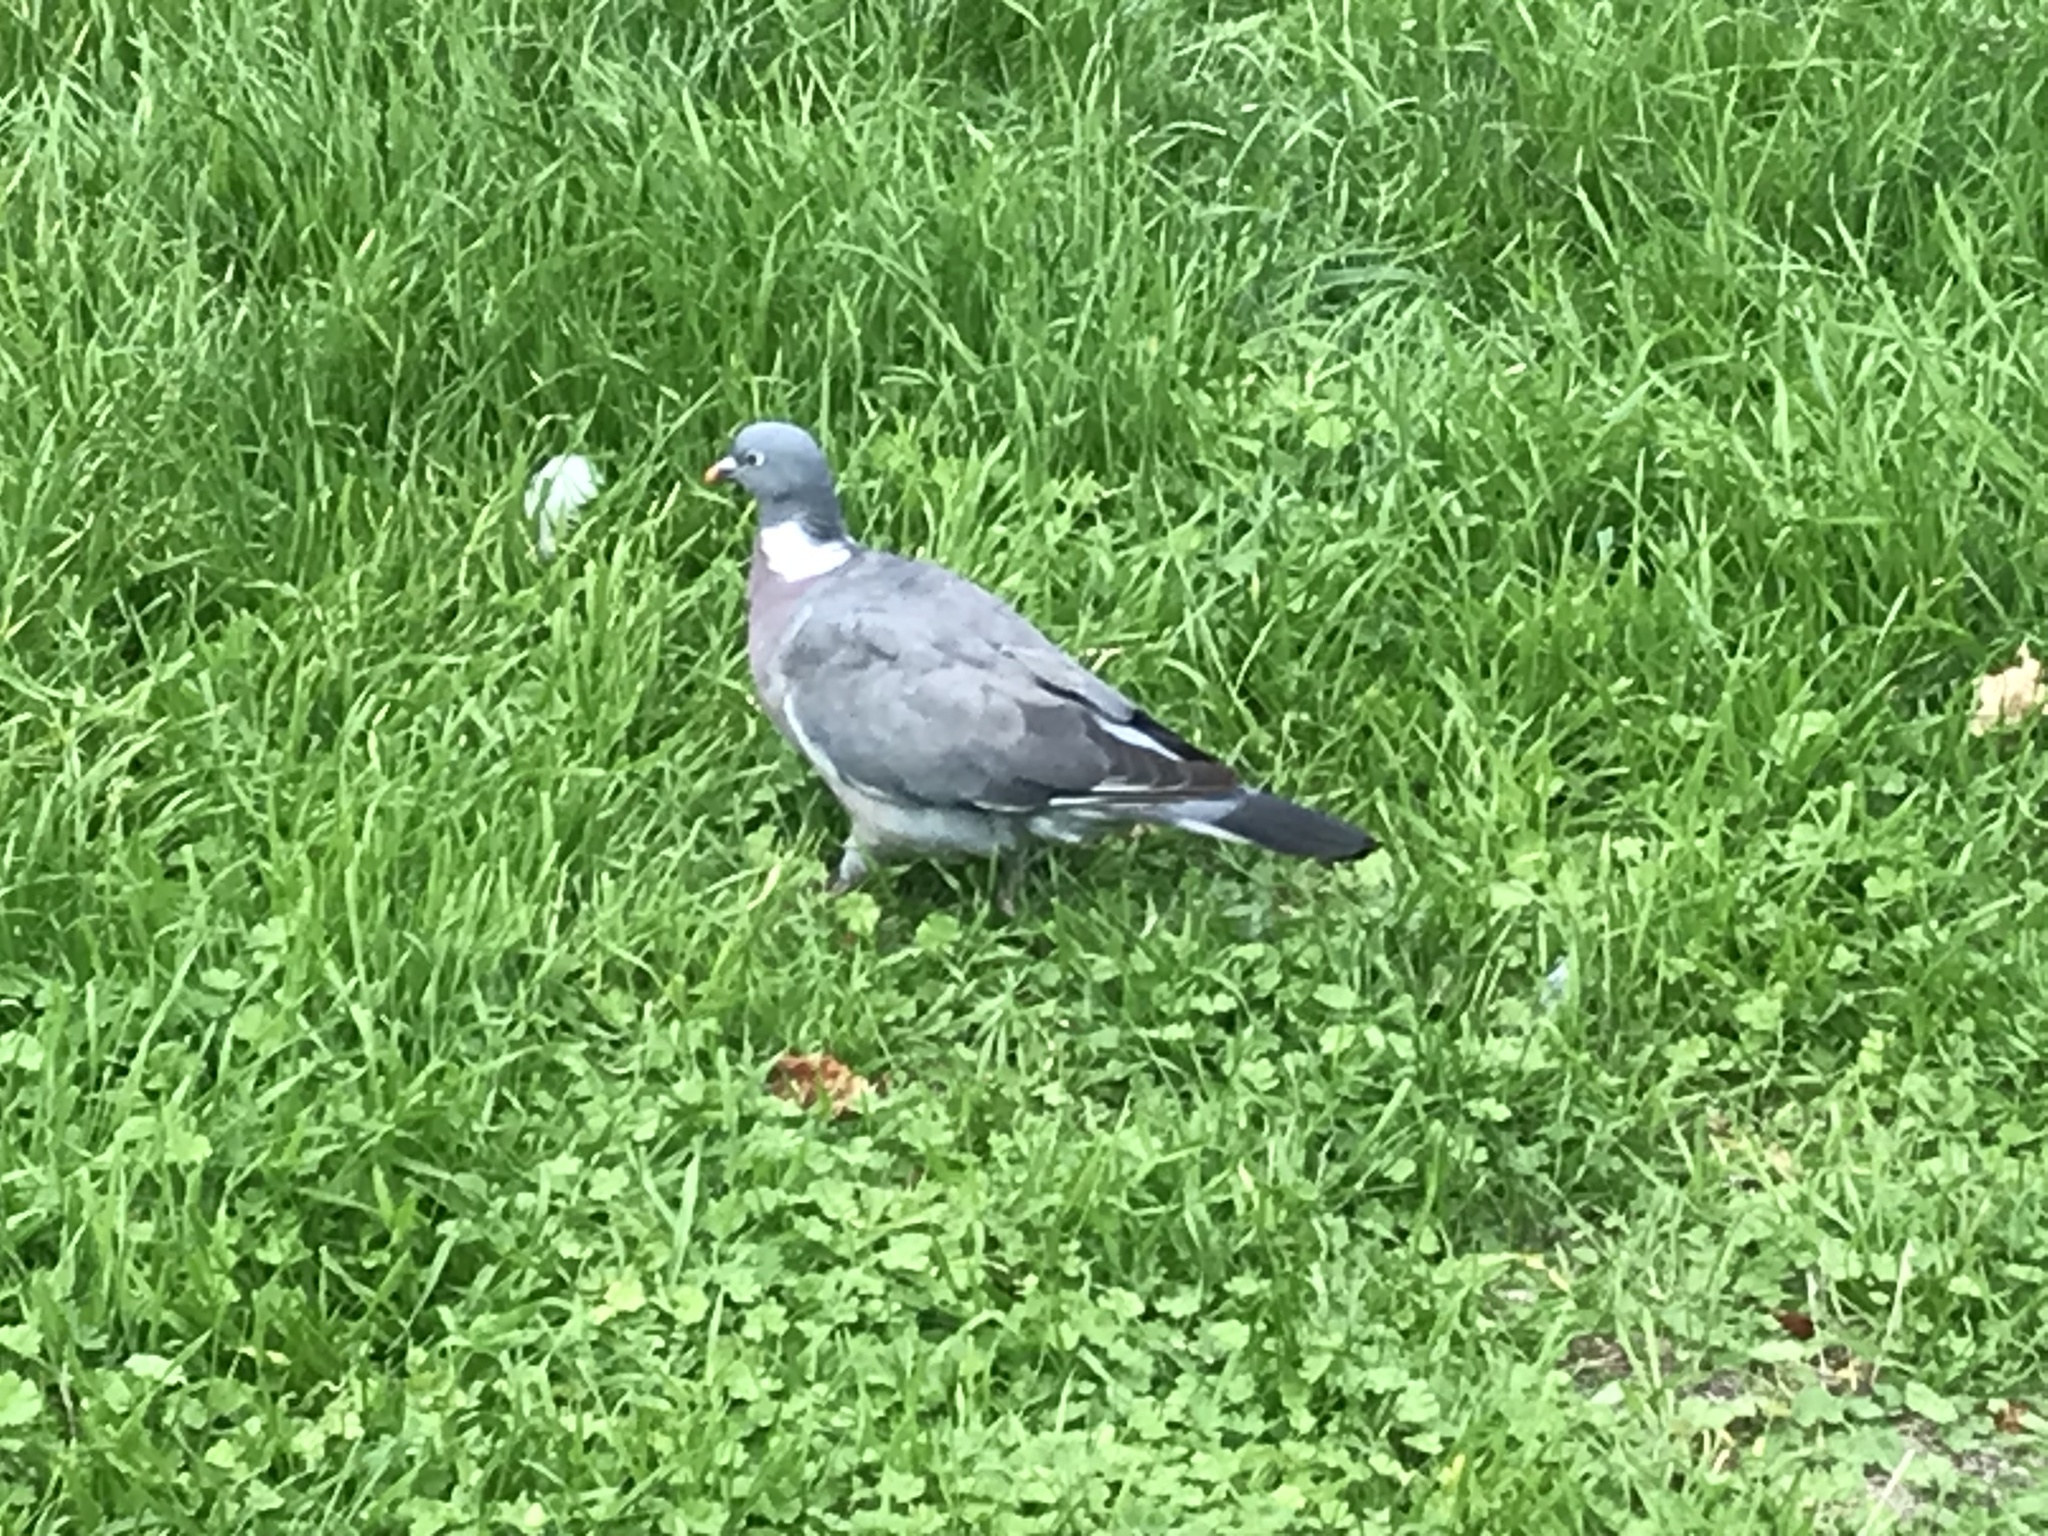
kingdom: Animalia
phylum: Chordata
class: Aves
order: Columbiformes
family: Columbidae
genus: Columba
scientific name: Columba palumbus
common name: Common wood pigeon
